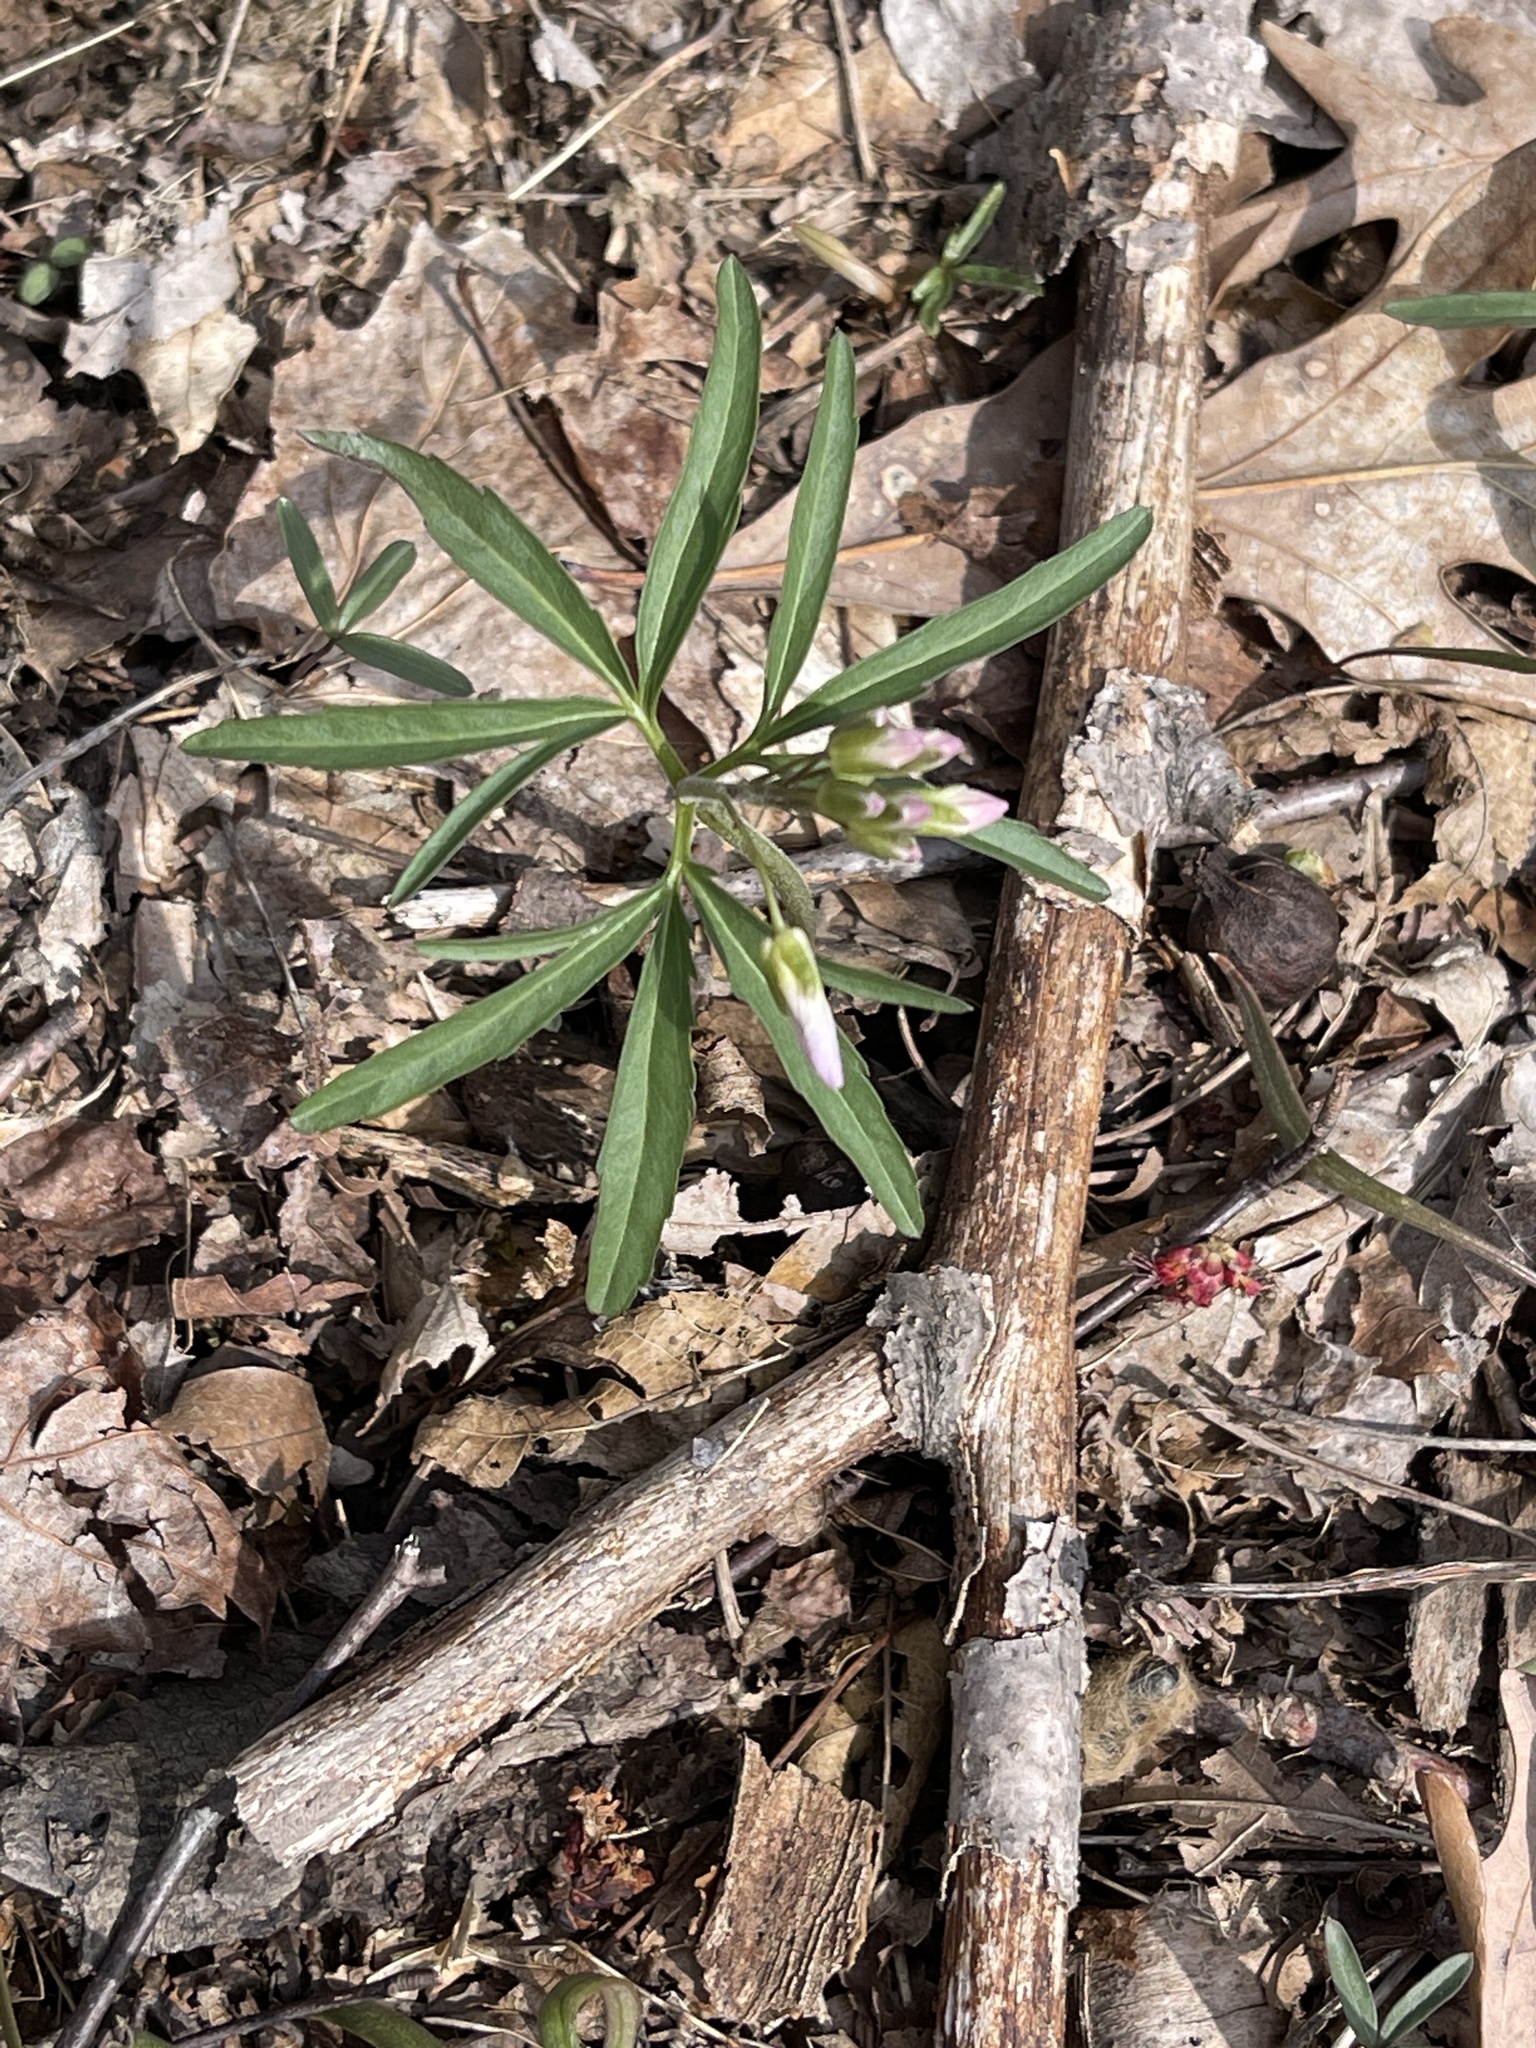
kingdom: Plantae
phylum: Tracheophyta
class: Magnoliopsida
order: Brassicales
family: Brassicaceae
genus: Cardamine
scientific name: Cardamine concatenata
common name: Cut-leaf toothcup
